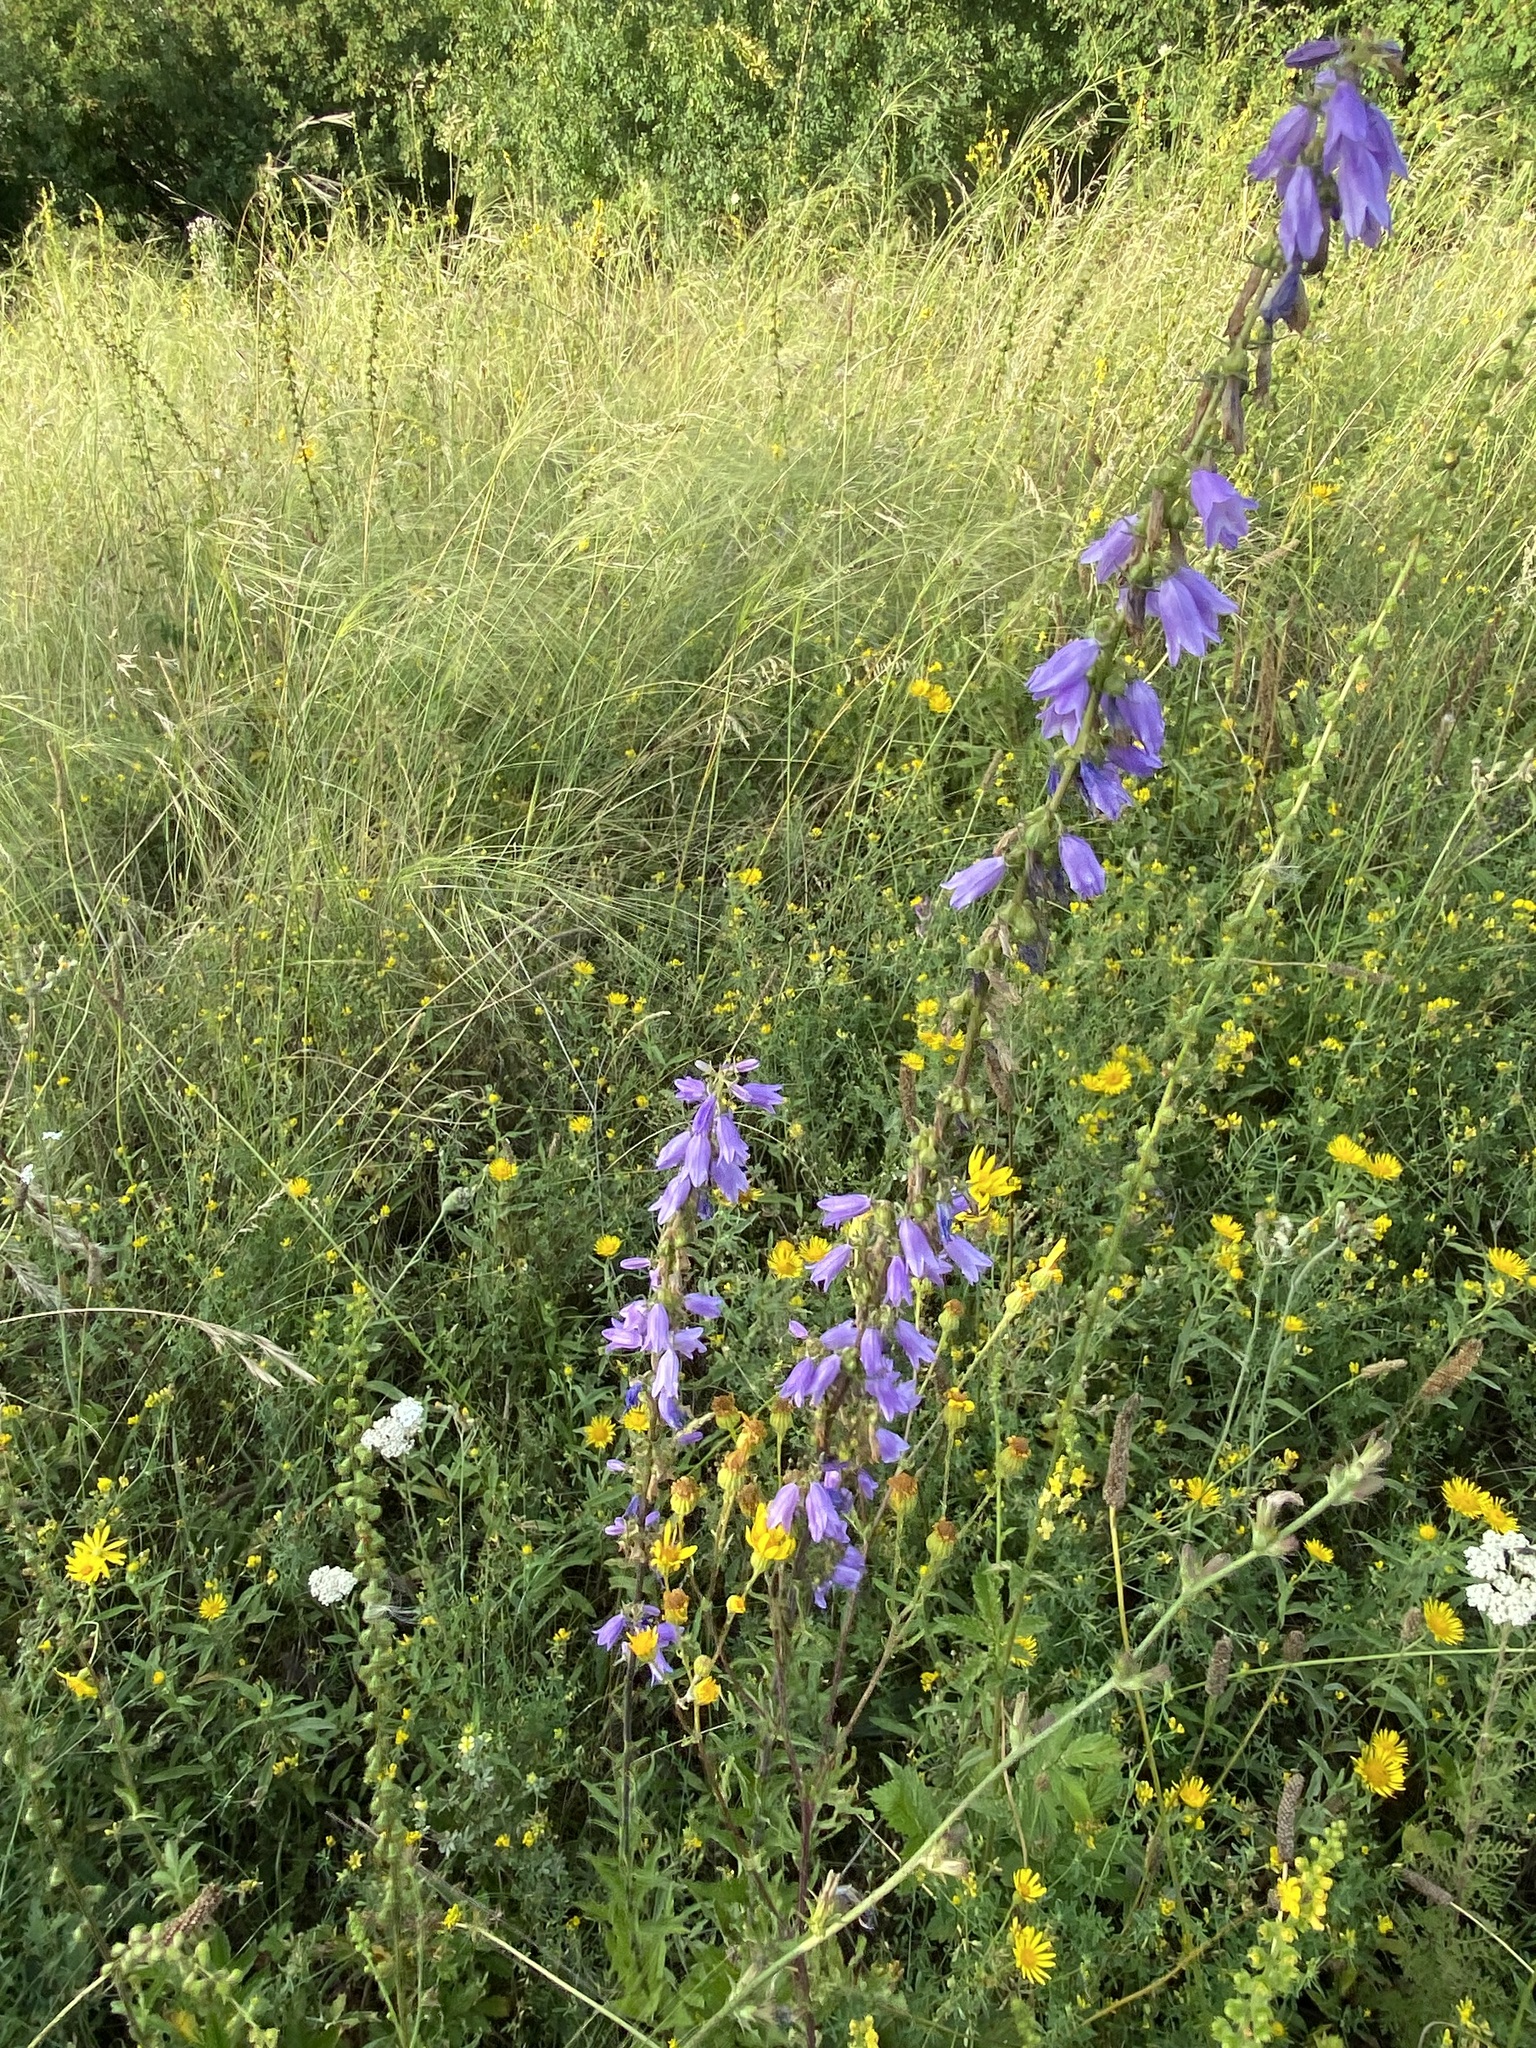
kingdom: Plantae
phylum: Tracheophyta
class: Magnoliopsida
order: Asterales
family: Campanulaceae
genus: Campanula
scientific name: Campanula bononiensis
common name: Pale bellflower
